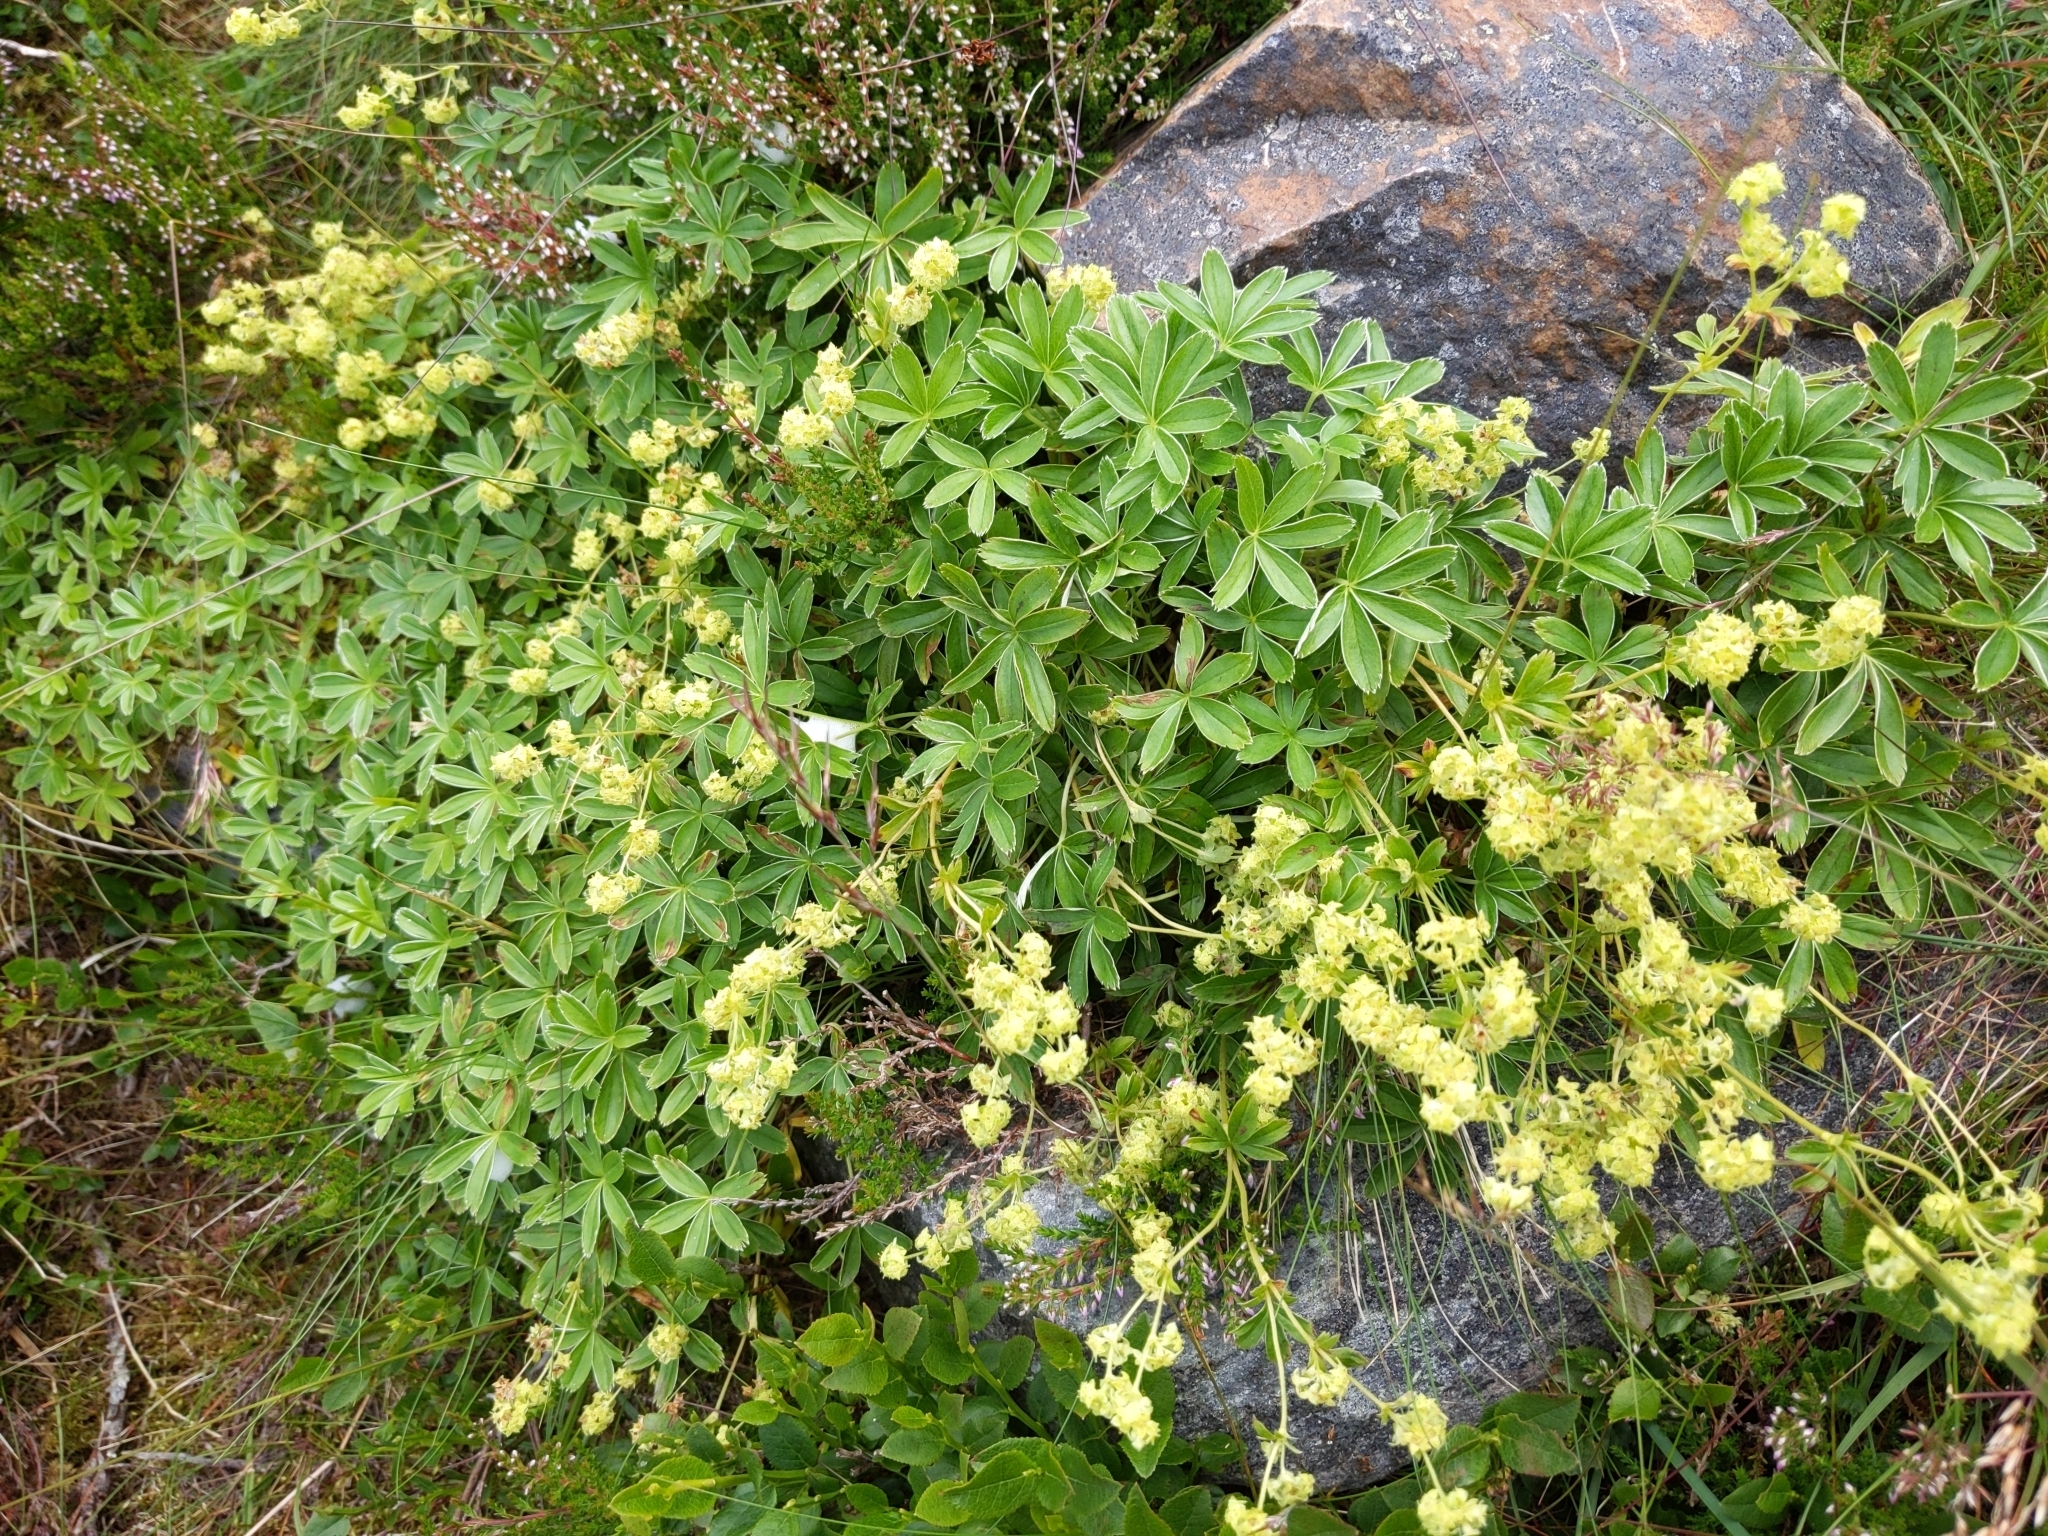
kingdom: Plantae
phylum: Tracheophyta
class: Magnoliopsida
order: Rosales
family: Rosaceae
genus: Alchemilla
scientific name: Alchemilla alpina
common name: Alpine lady's-mantle
